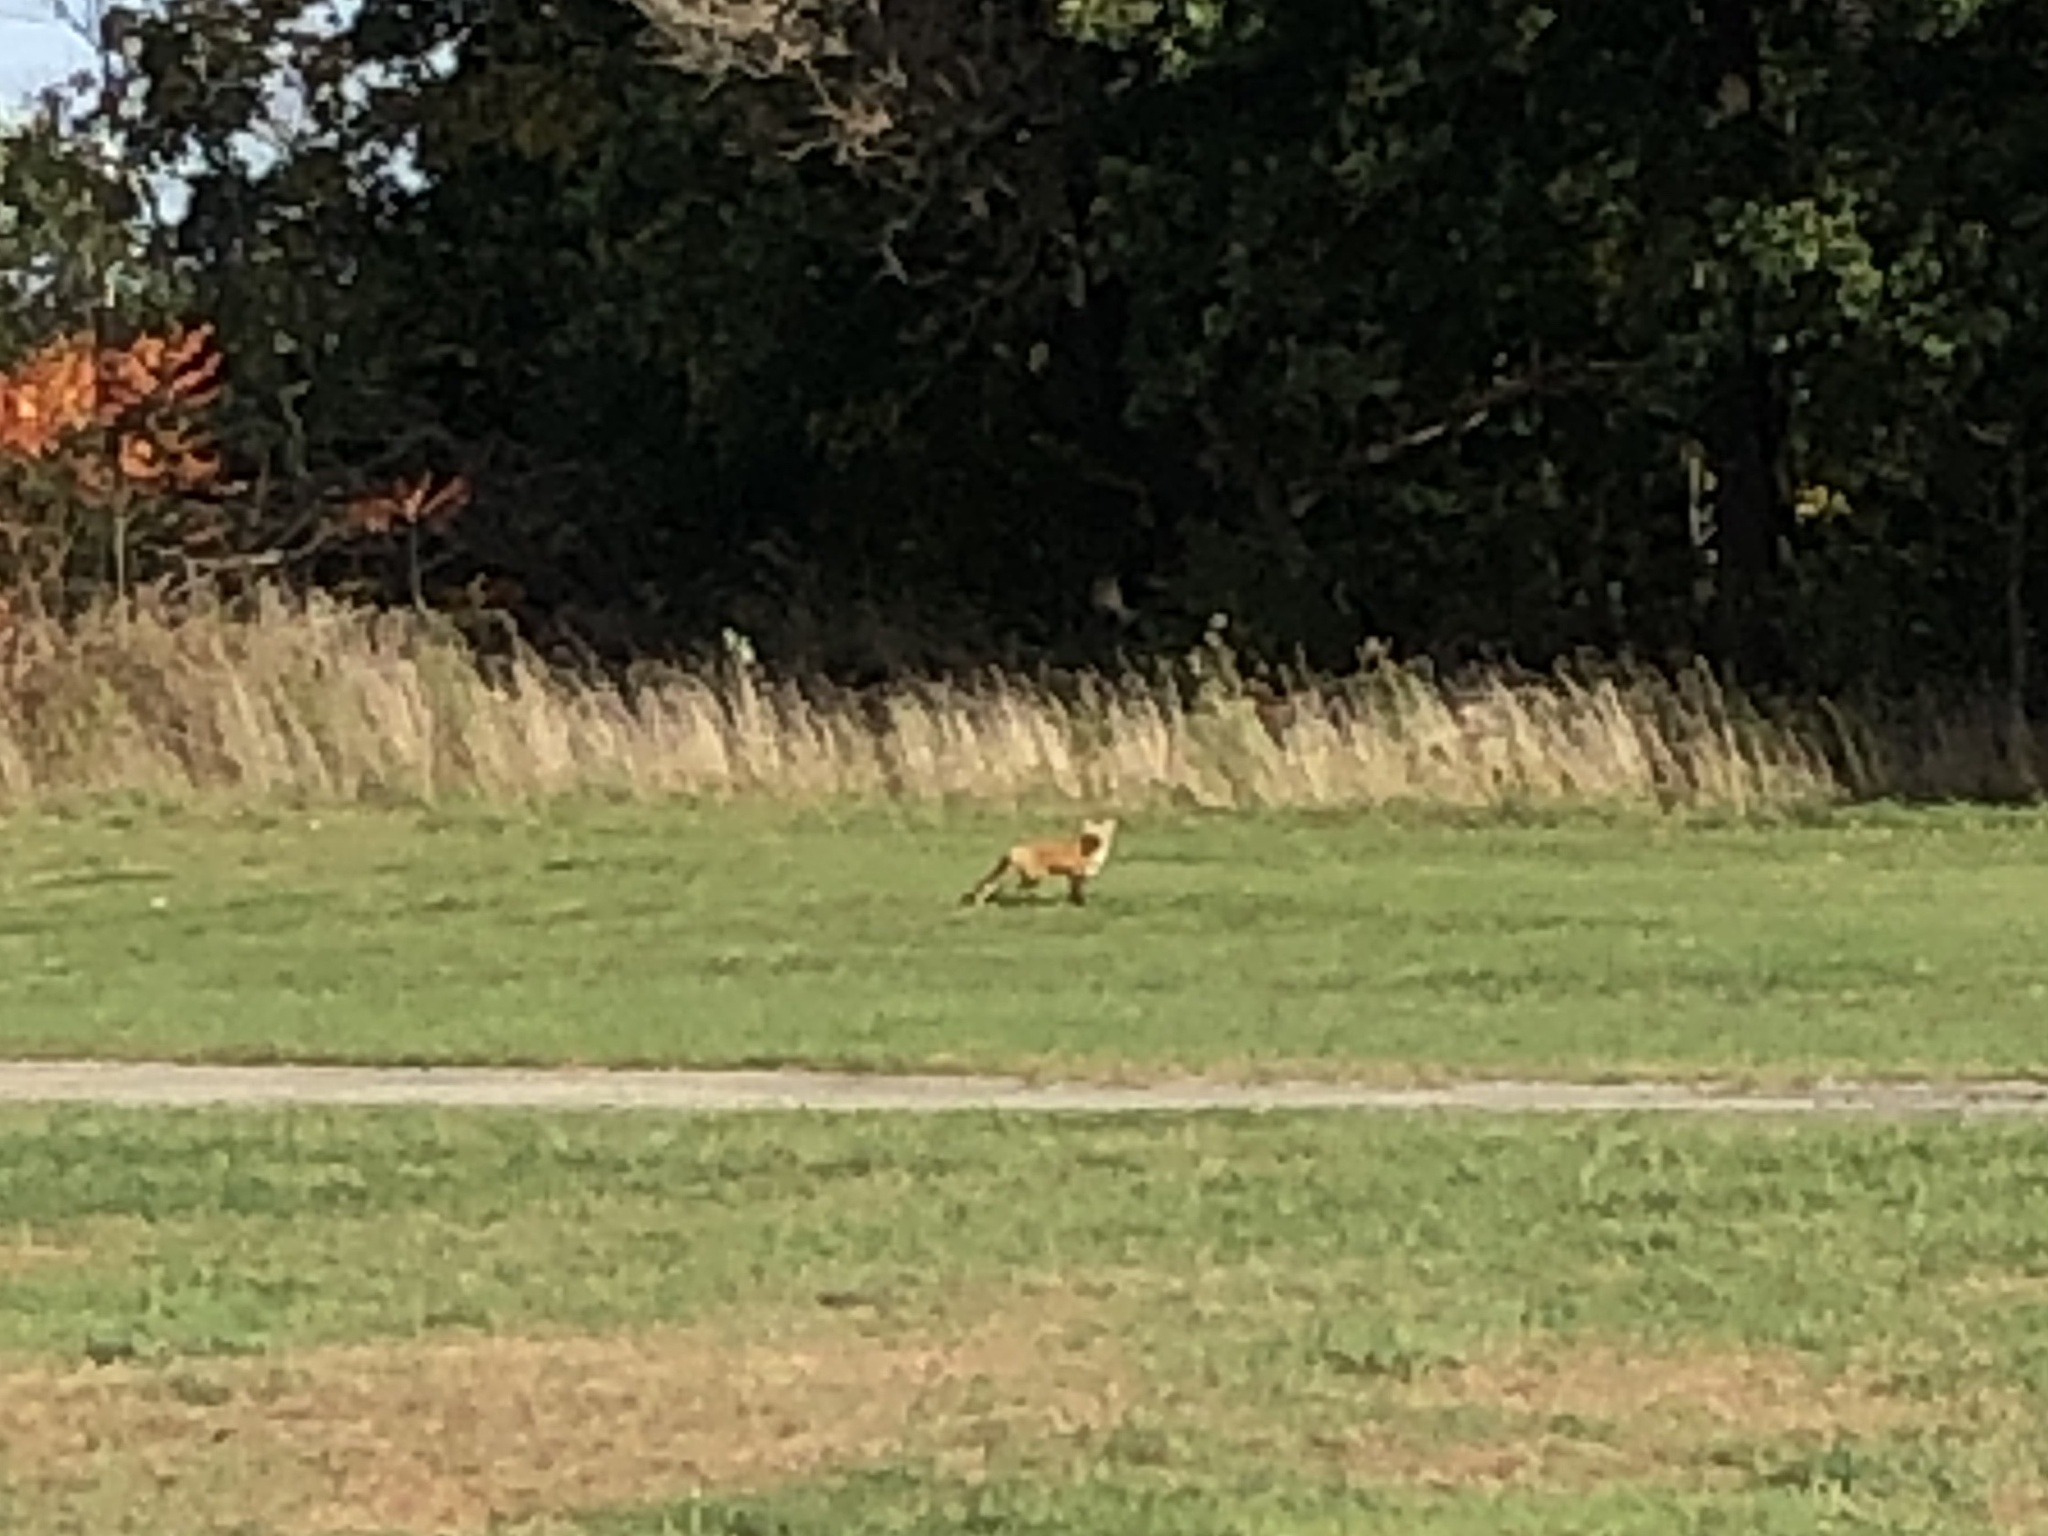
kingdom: Animalia
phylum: Chordata
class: Mammalia
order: Carnivora
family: Canidae
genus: Vulpes
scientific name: Vulpes vulpes
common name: Red fox
